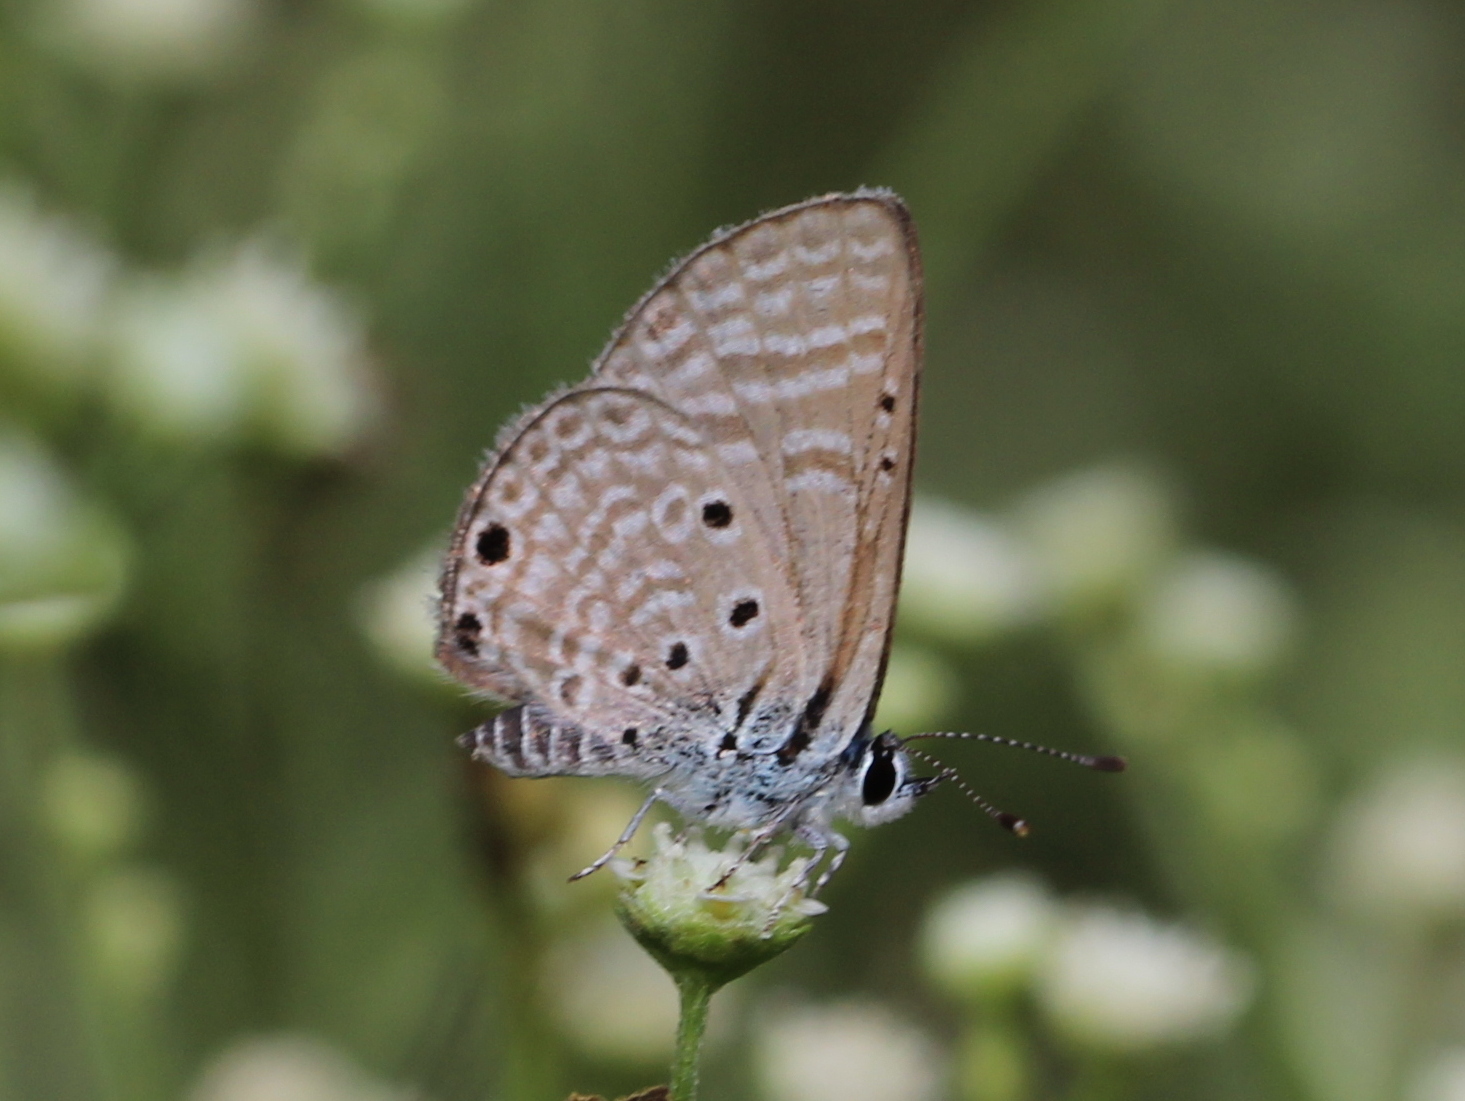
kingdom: Animalia
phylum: Arthropoda
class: Insecta
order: Lepidoptera
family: Lycaenidae
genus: Azanus
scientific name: Azanus ubaldus
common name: Desert babul blue
